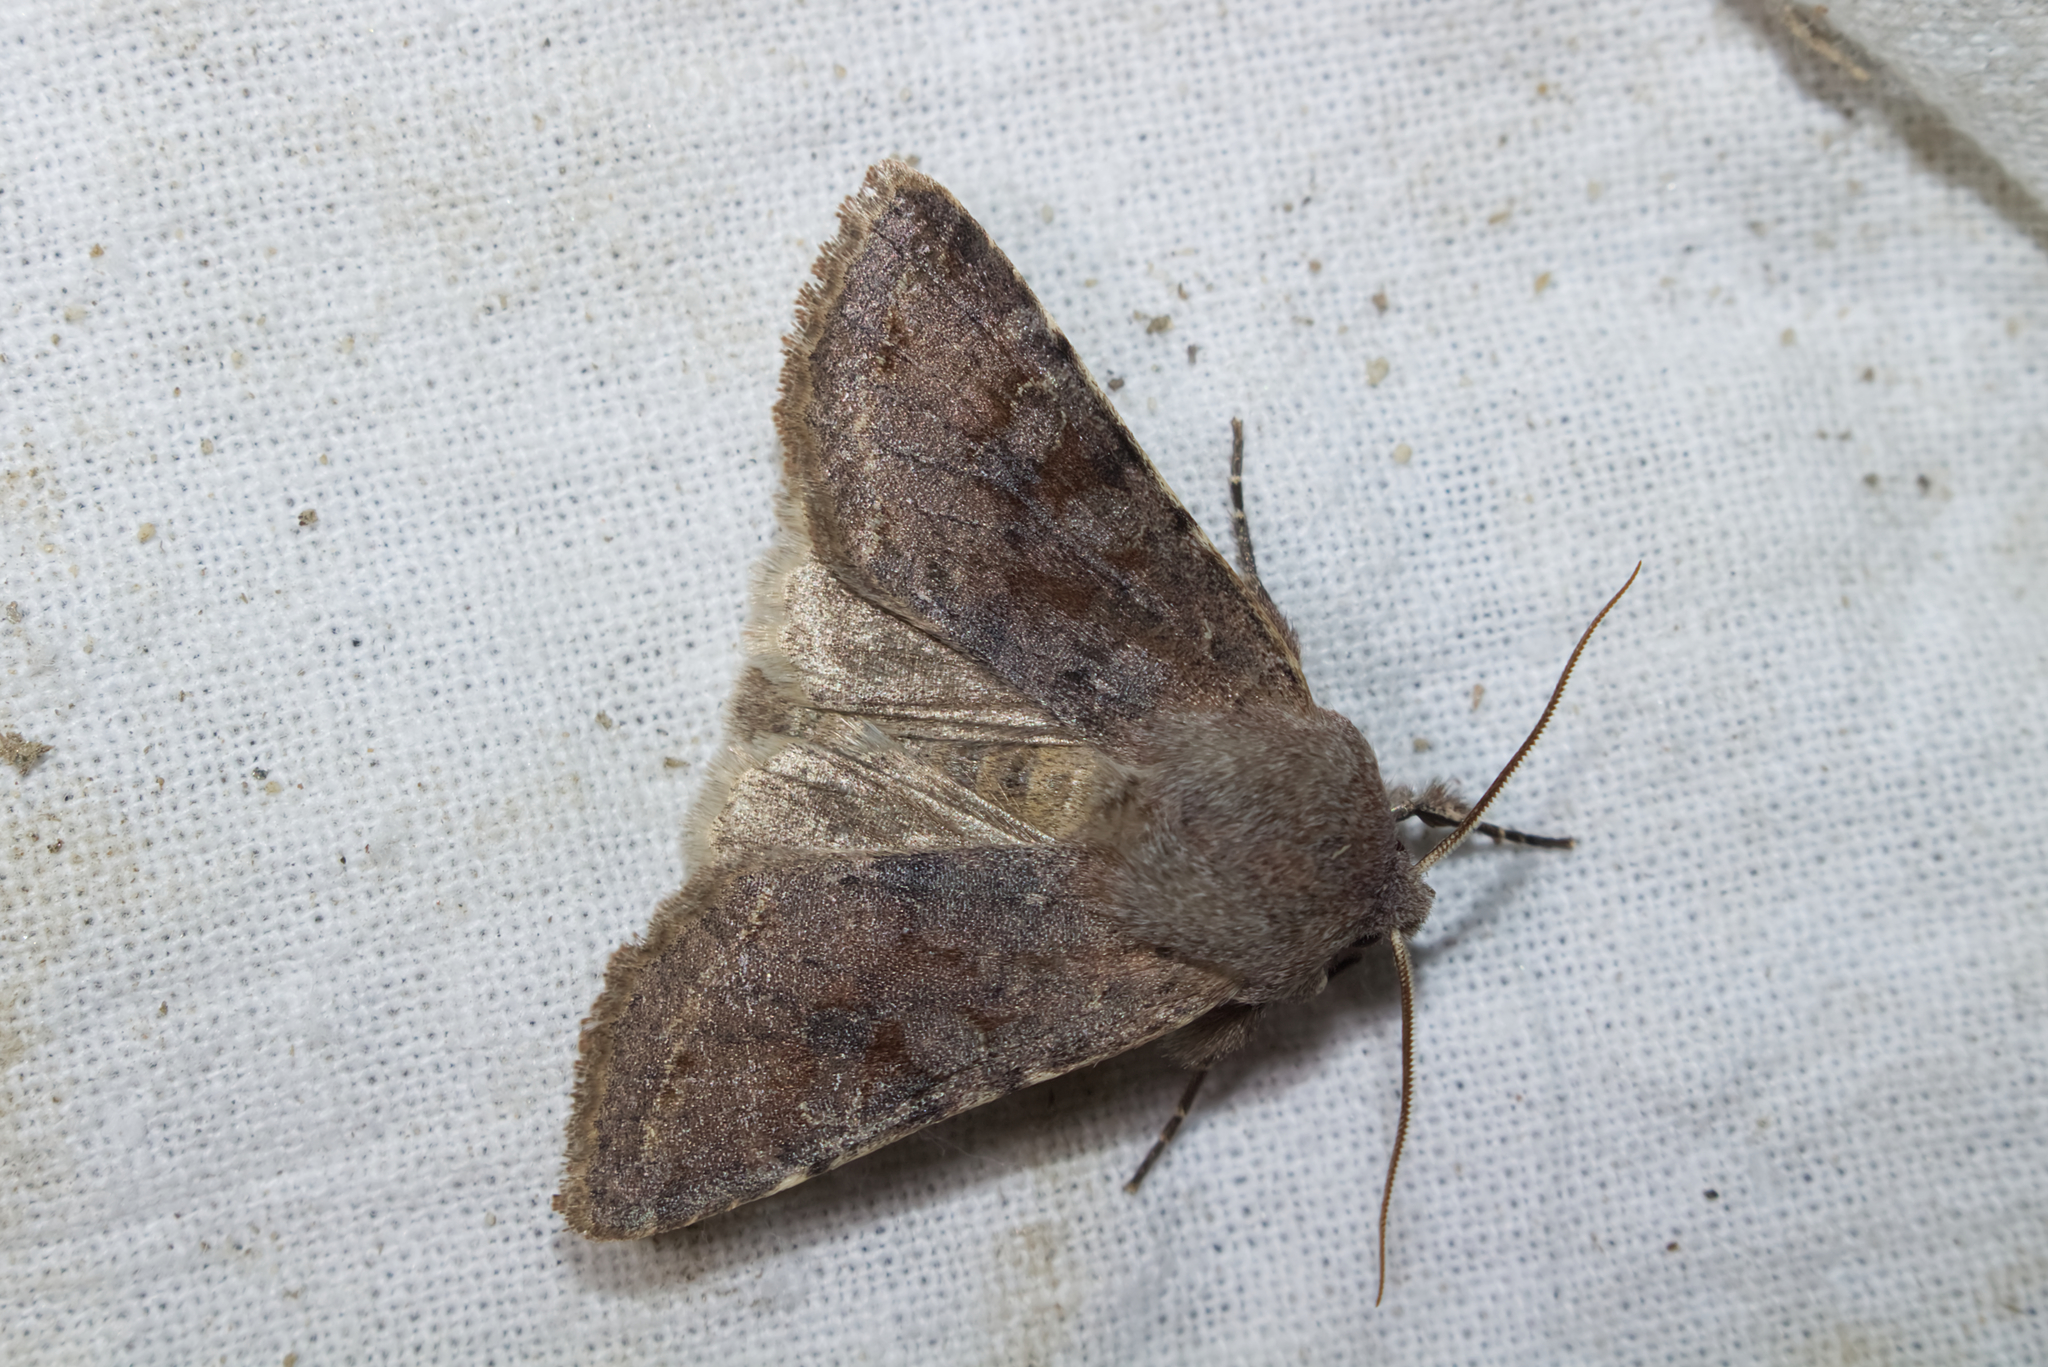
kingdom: Animalia
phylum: Arthropoda
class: Insecta
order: Lepidoptera
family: Noctuidae
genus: Orthosia
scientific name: Orthosia incerta
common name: Clouded drab
